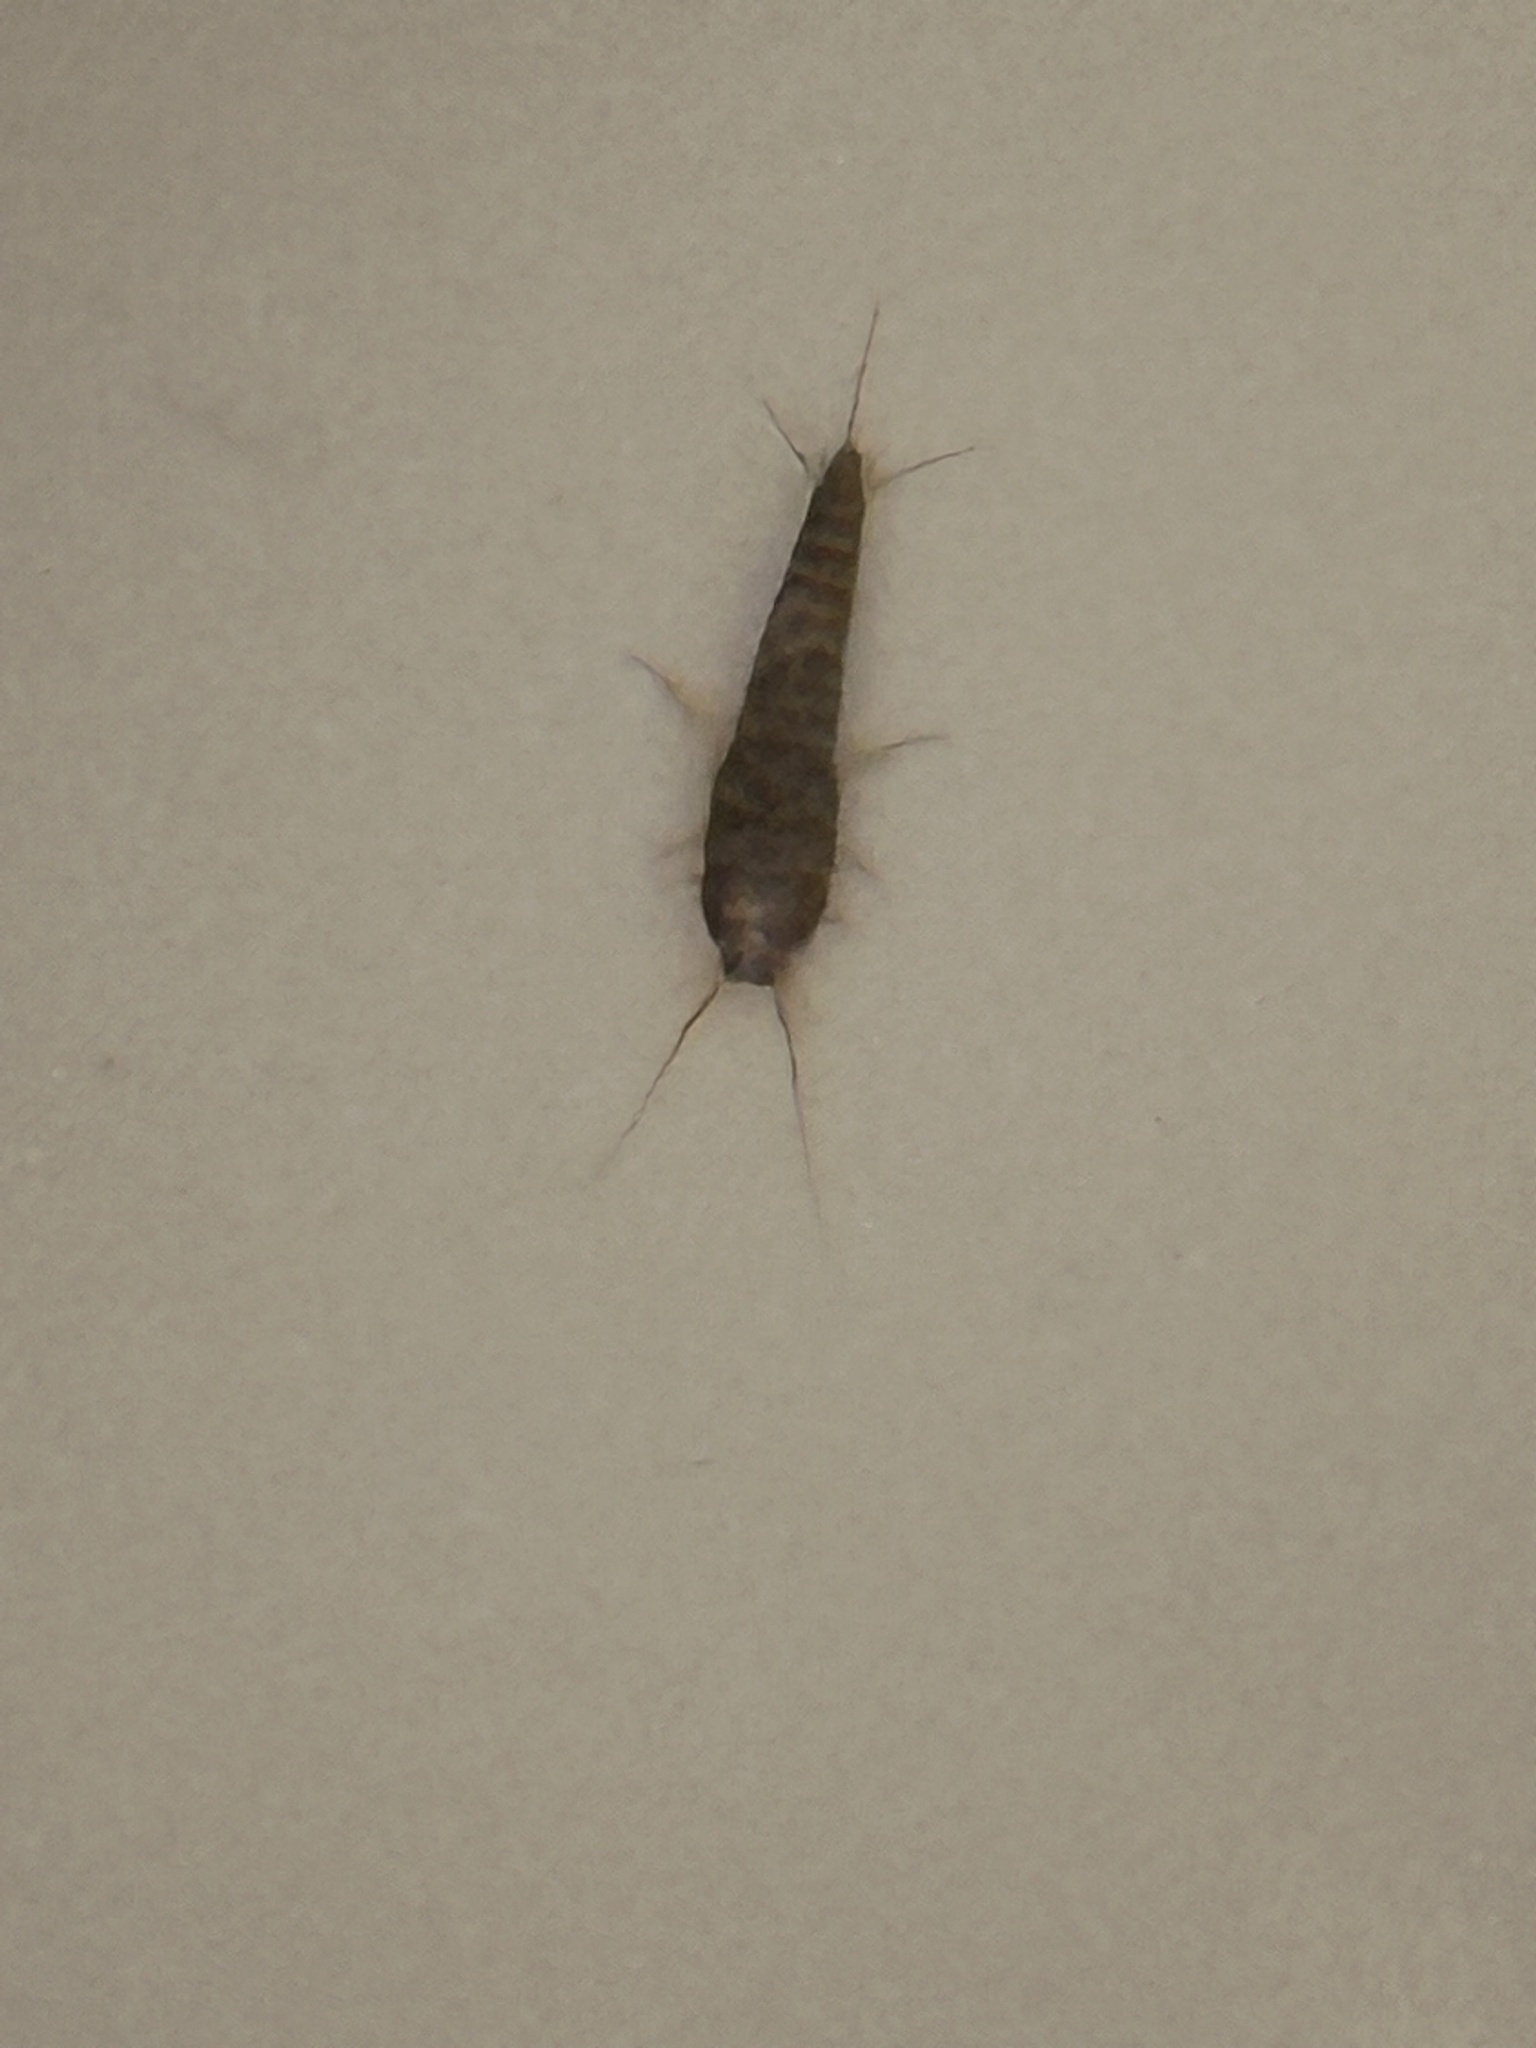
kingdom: Animalia
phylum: Arthropoda
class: Insecta
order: Zygentoma
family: Lepismatidae
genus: Lepisma
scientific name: Lepisma saccharinum
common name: Silverfish
